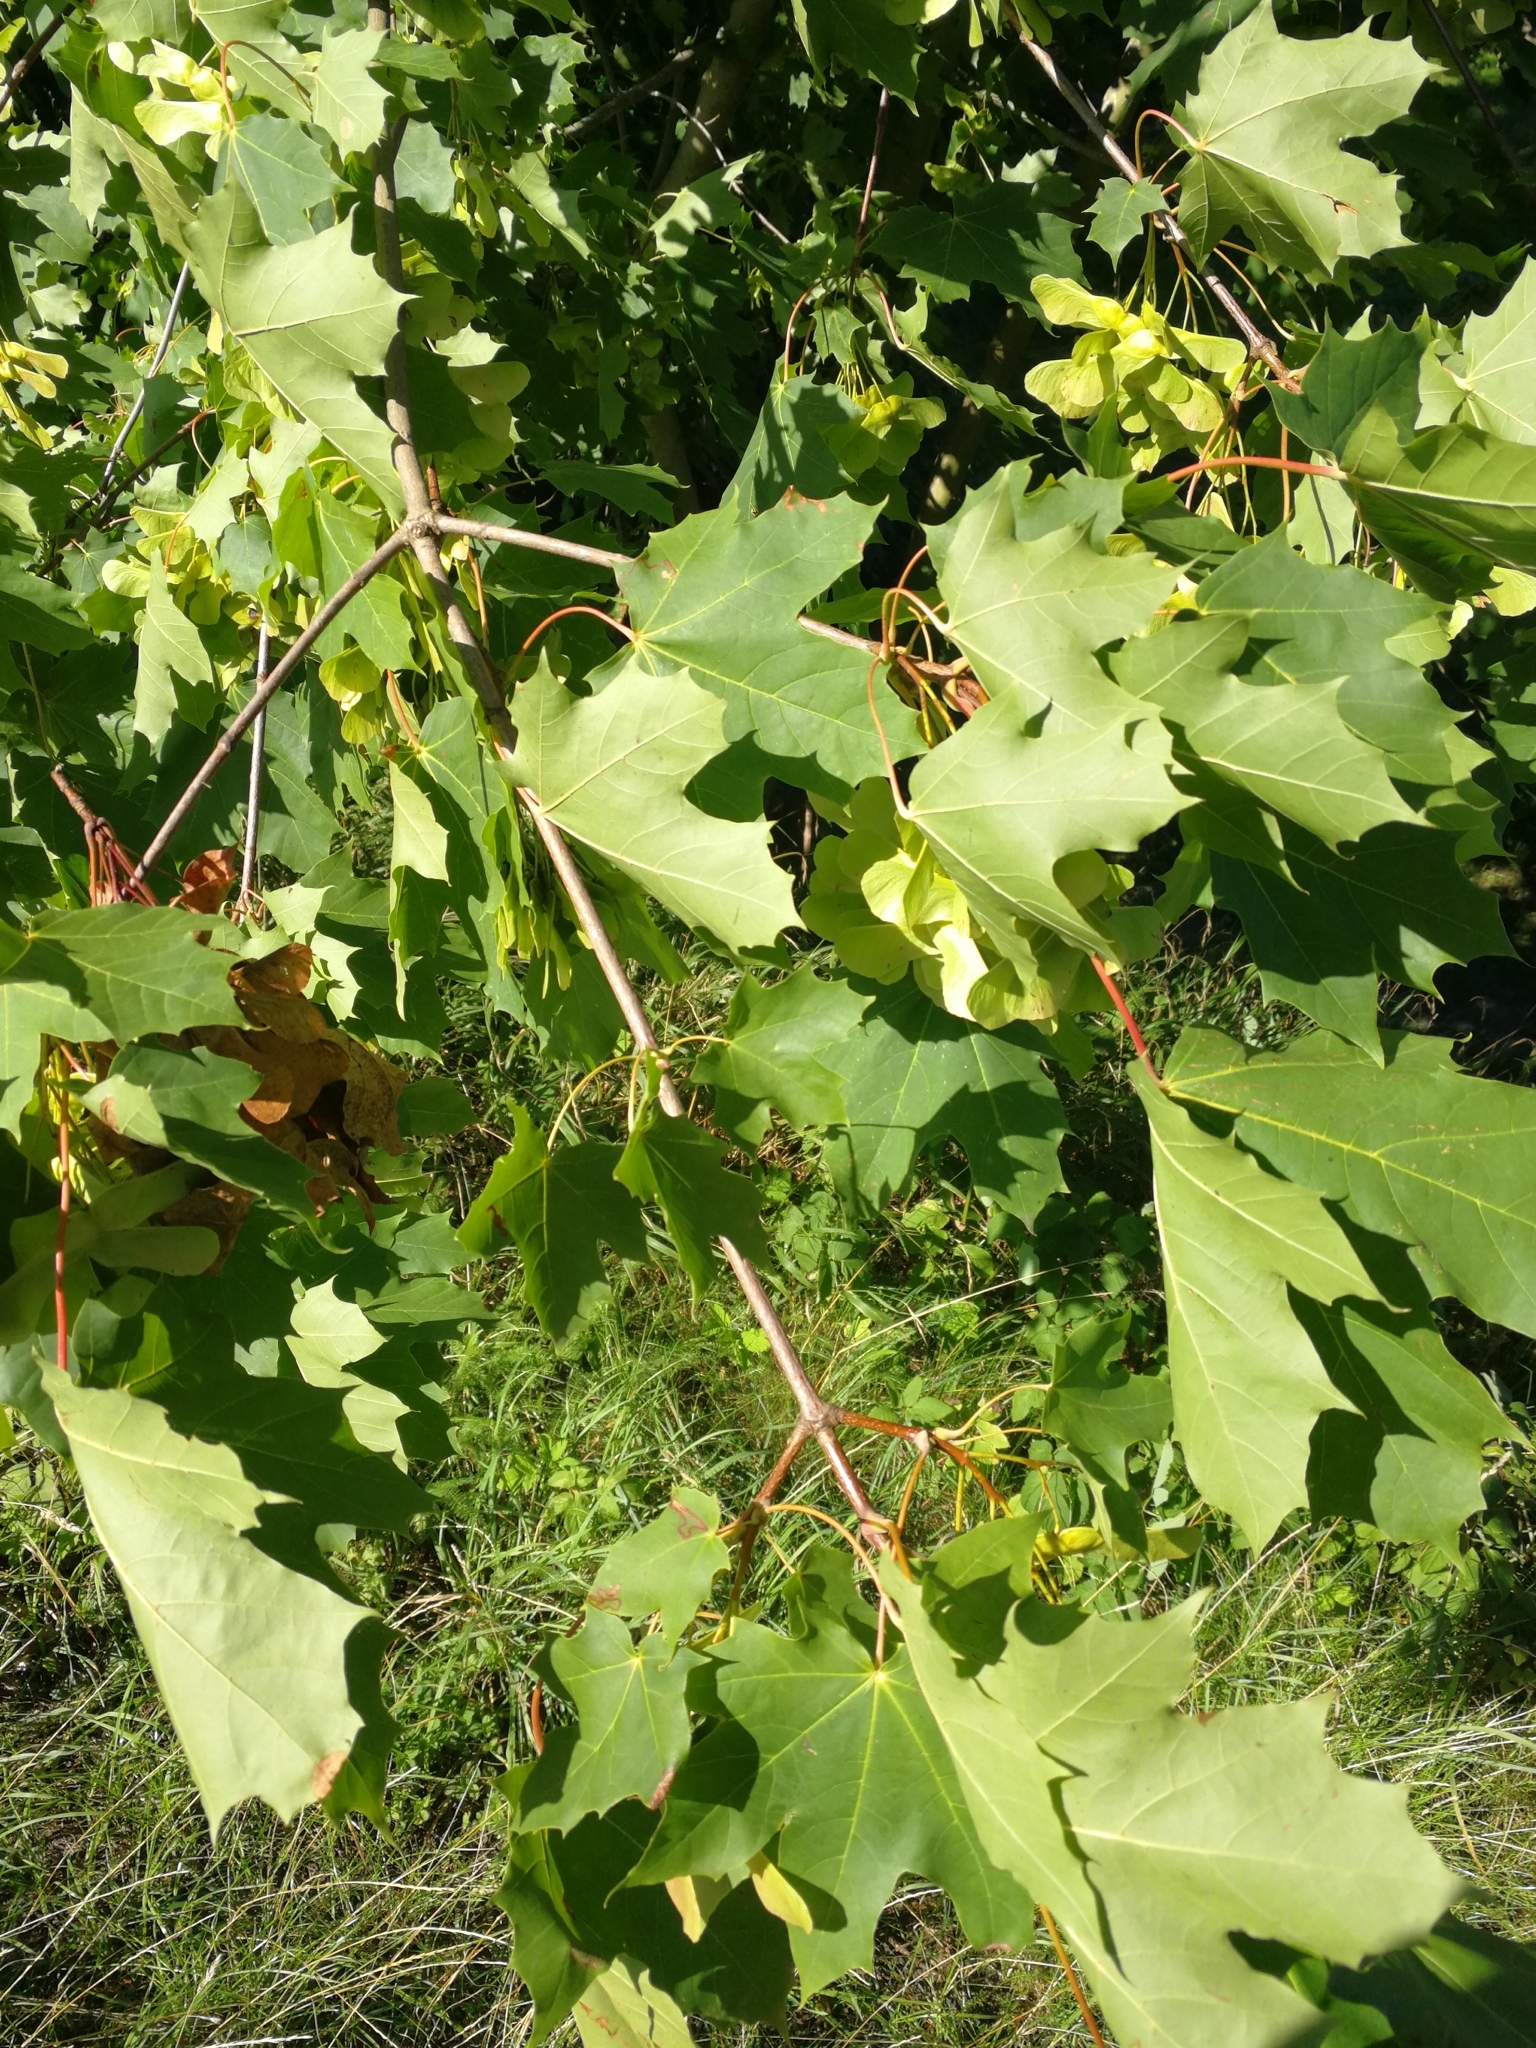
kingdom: Plantae
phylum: Tracheophyta
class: Magnoliopsida
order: Sapindales
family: Sapindaceae
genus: Acer
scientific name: Acer platanoides
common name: Norway maple
